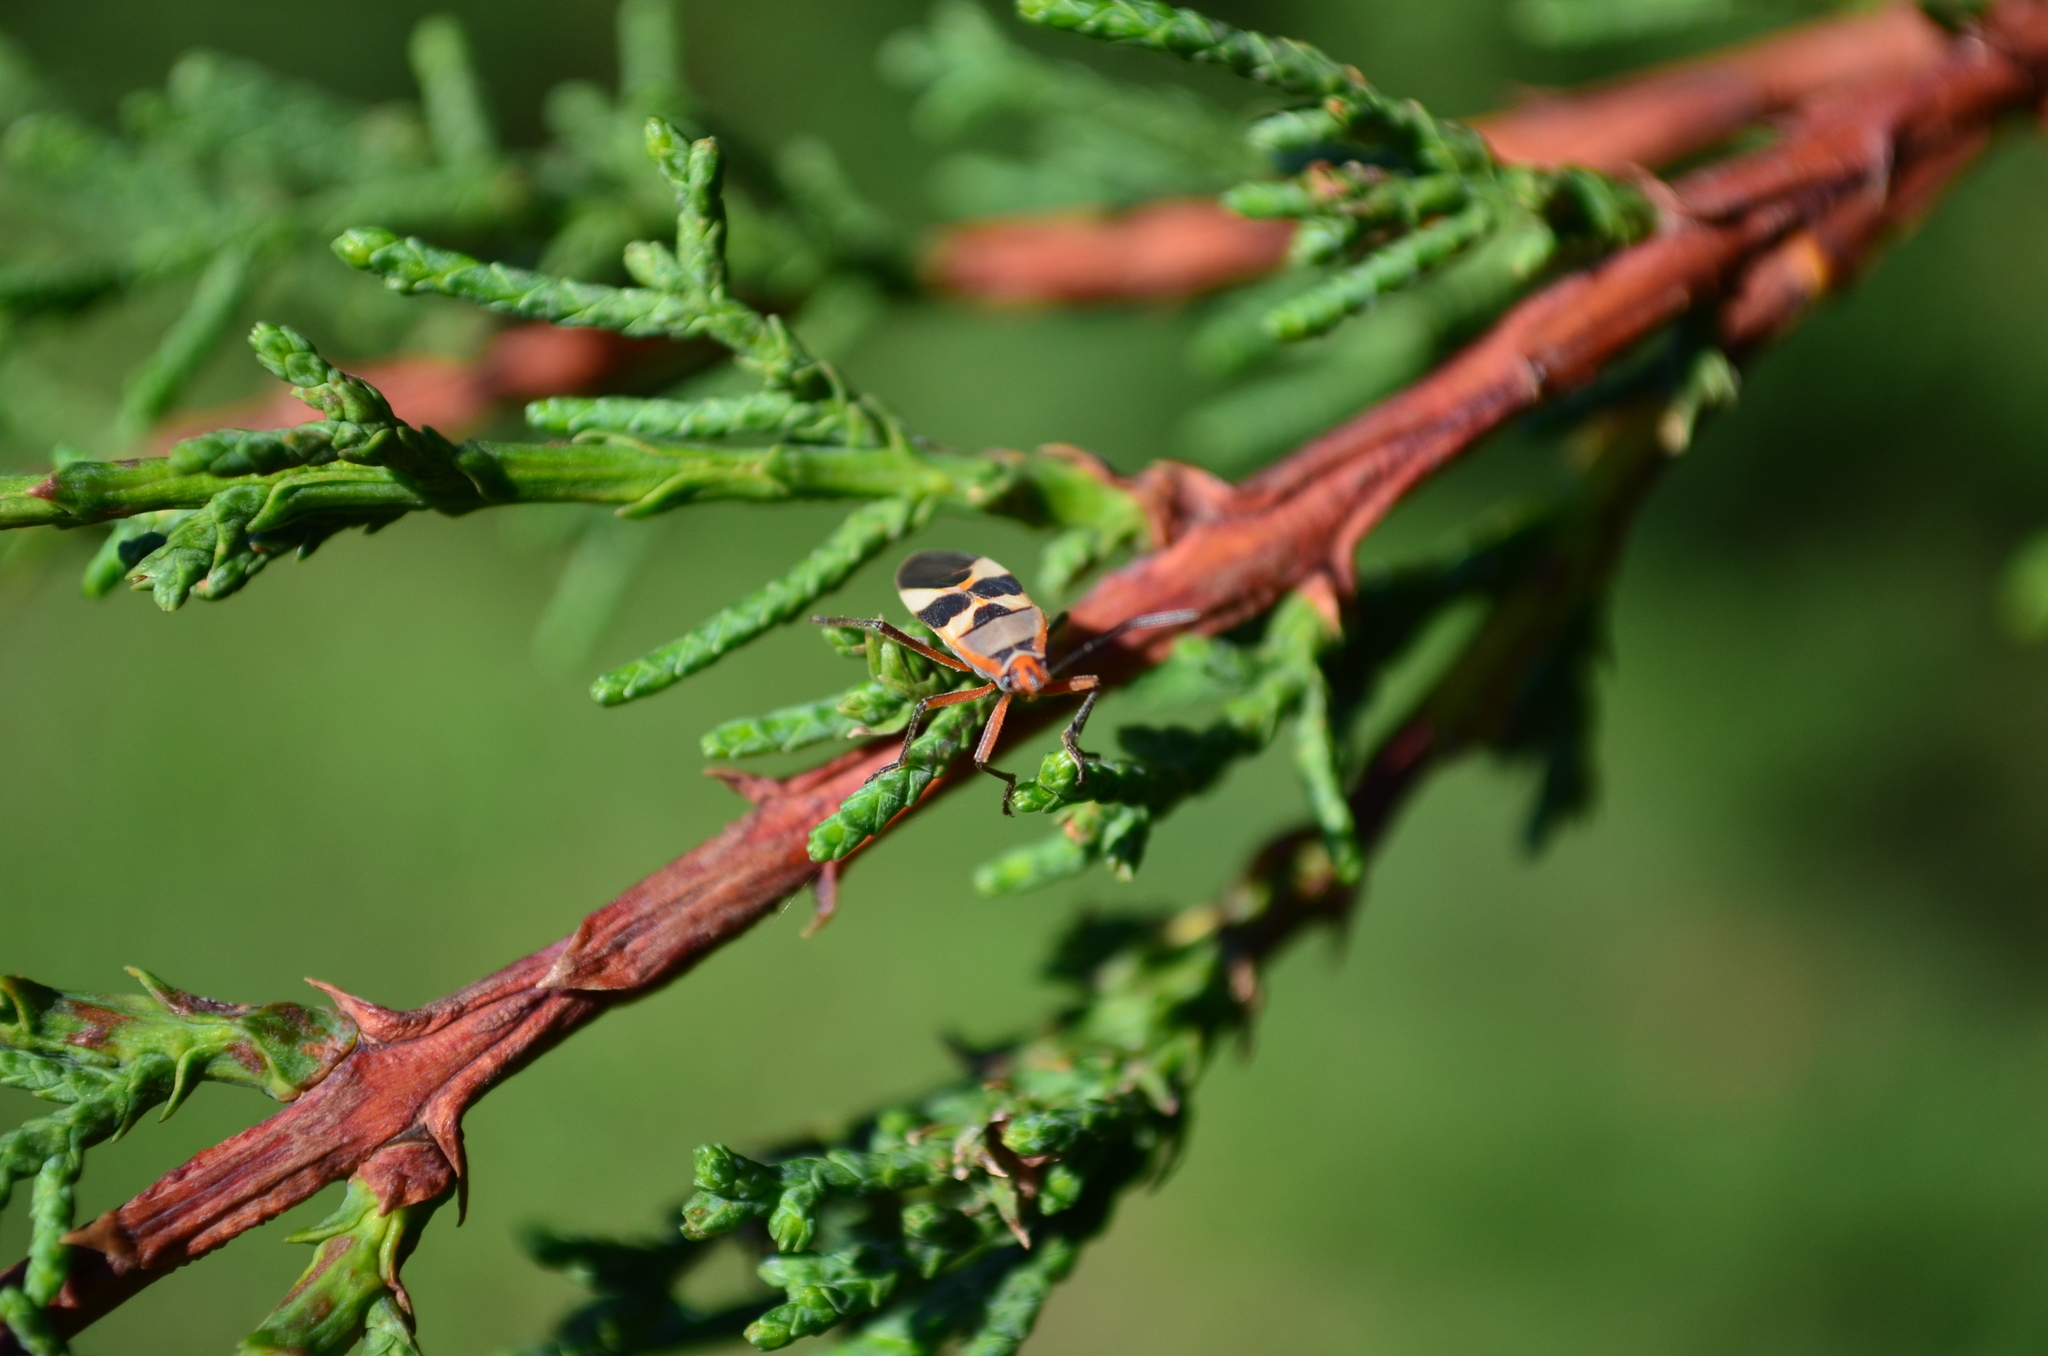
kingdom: Animalia
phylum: Arthropoda
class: Insecta
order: Hemiptera
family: Lygaeidae
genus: Oncopeltus
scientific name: Oncopeltus unifasciatellus
